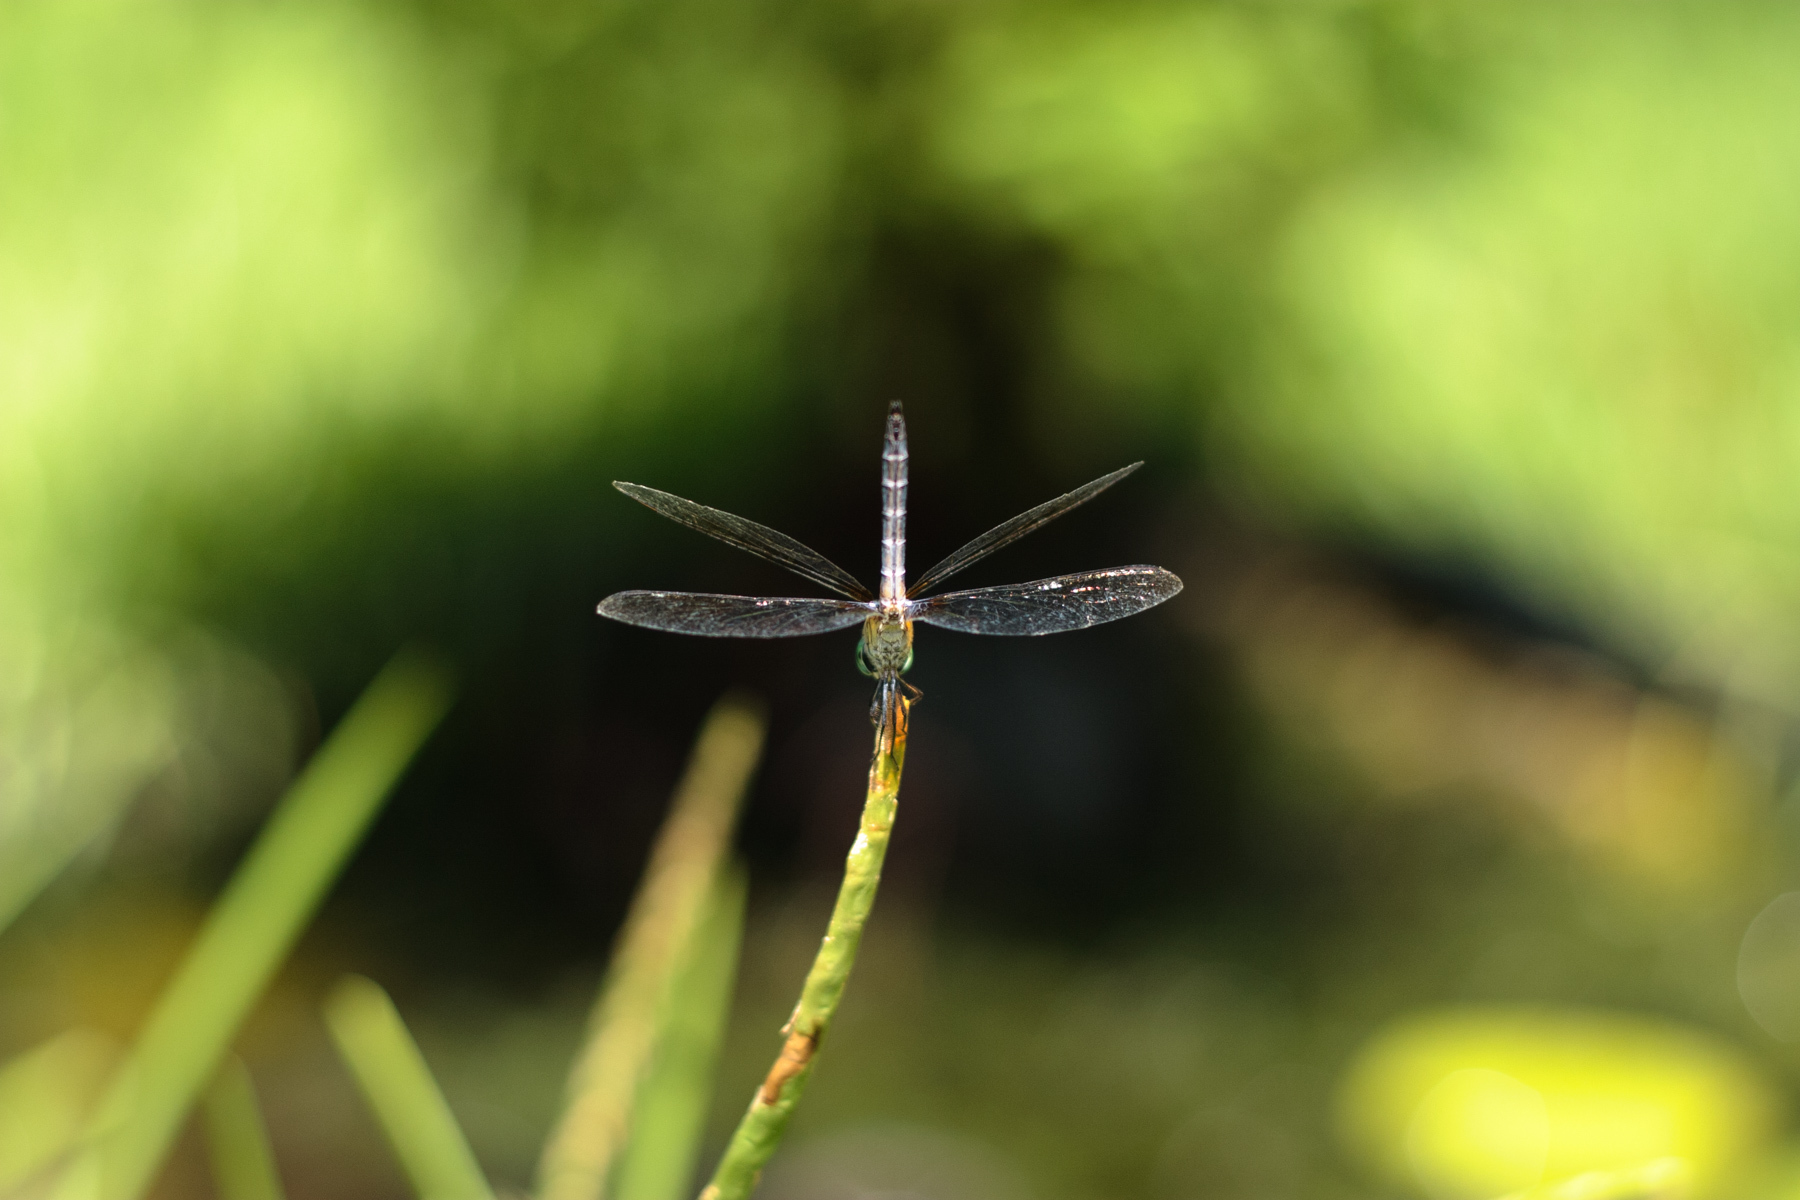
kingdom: Animalia
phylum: Arthropoda
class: Insecta
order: Odonata
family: Libellulidae
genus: Pachydiplax
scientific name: Pachydiplax longipennis
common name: Blue dasher
